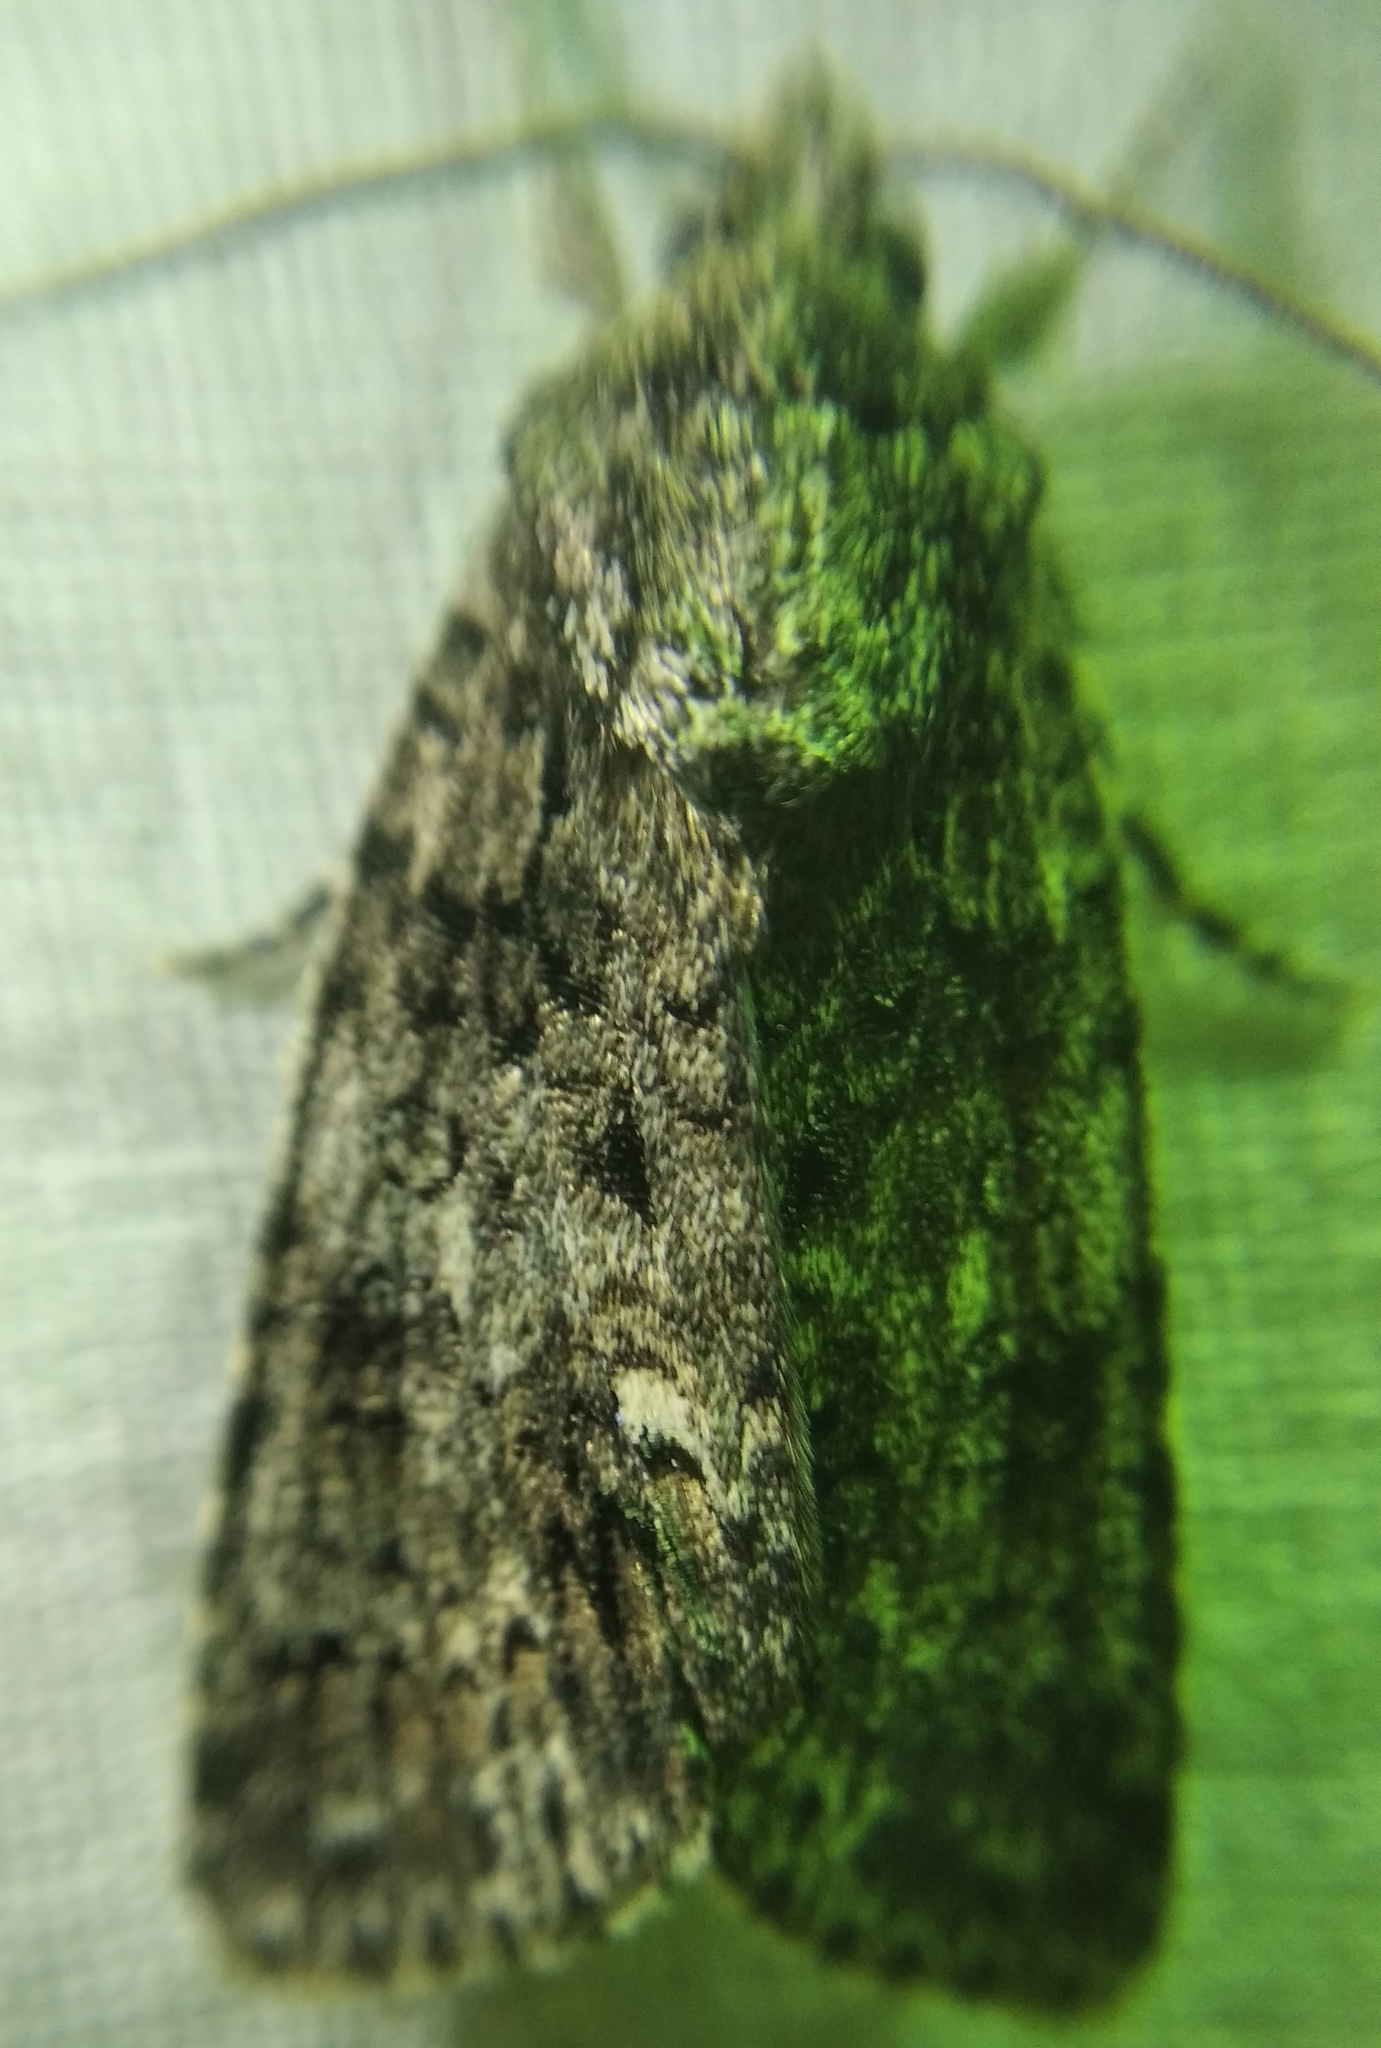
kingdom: Animalia
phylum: Arthropoda
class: Insecta
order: Lepidoptera
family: Noctuidae
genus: Acronicta
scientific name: Acronicta rumicis
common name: Knot grass
